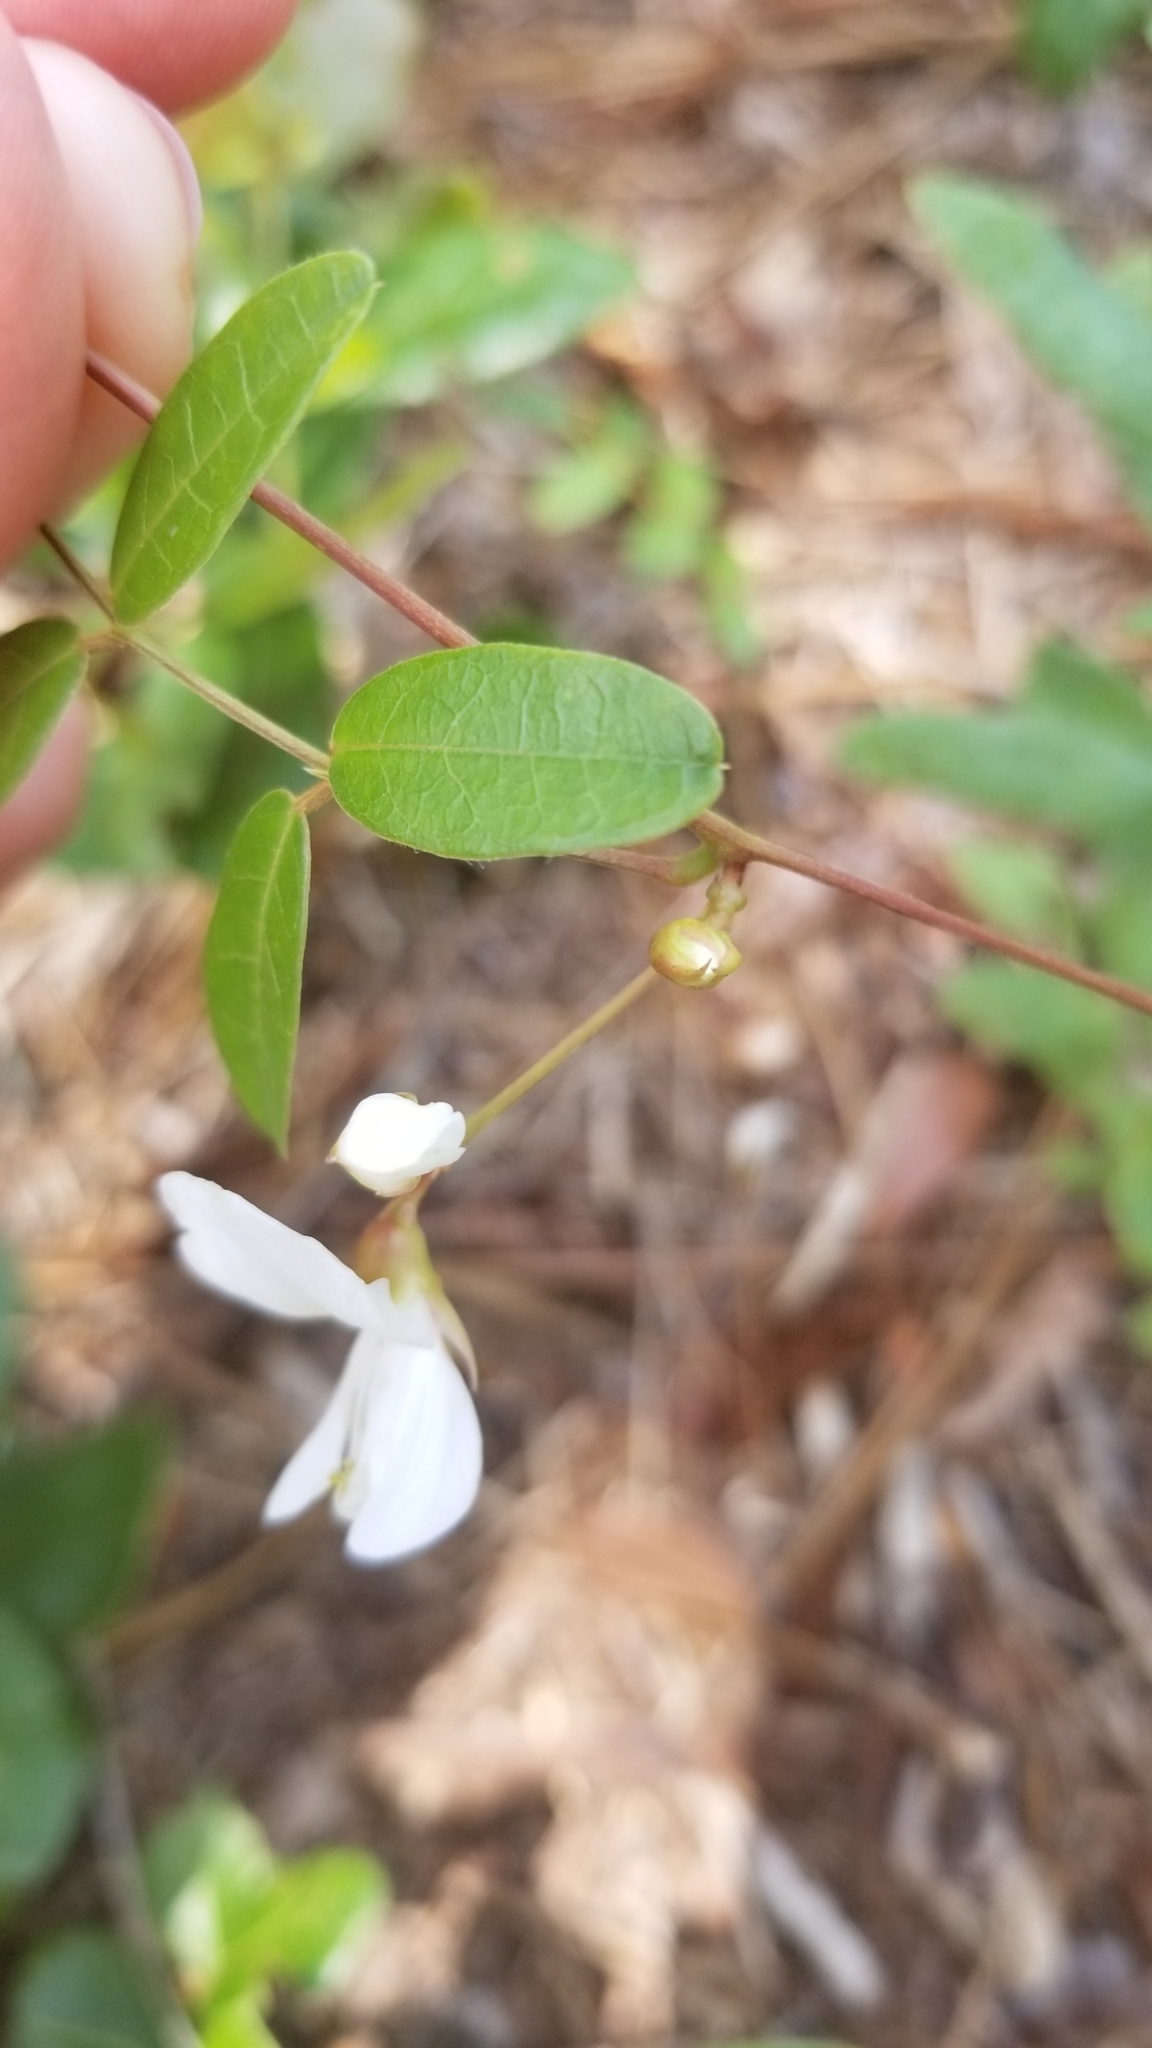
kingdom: Plantae
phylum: Tracheophyta
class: Magnoliopsida
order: Fabales
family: Fabaceae
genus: Galactia
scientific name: Galactia elliottii
